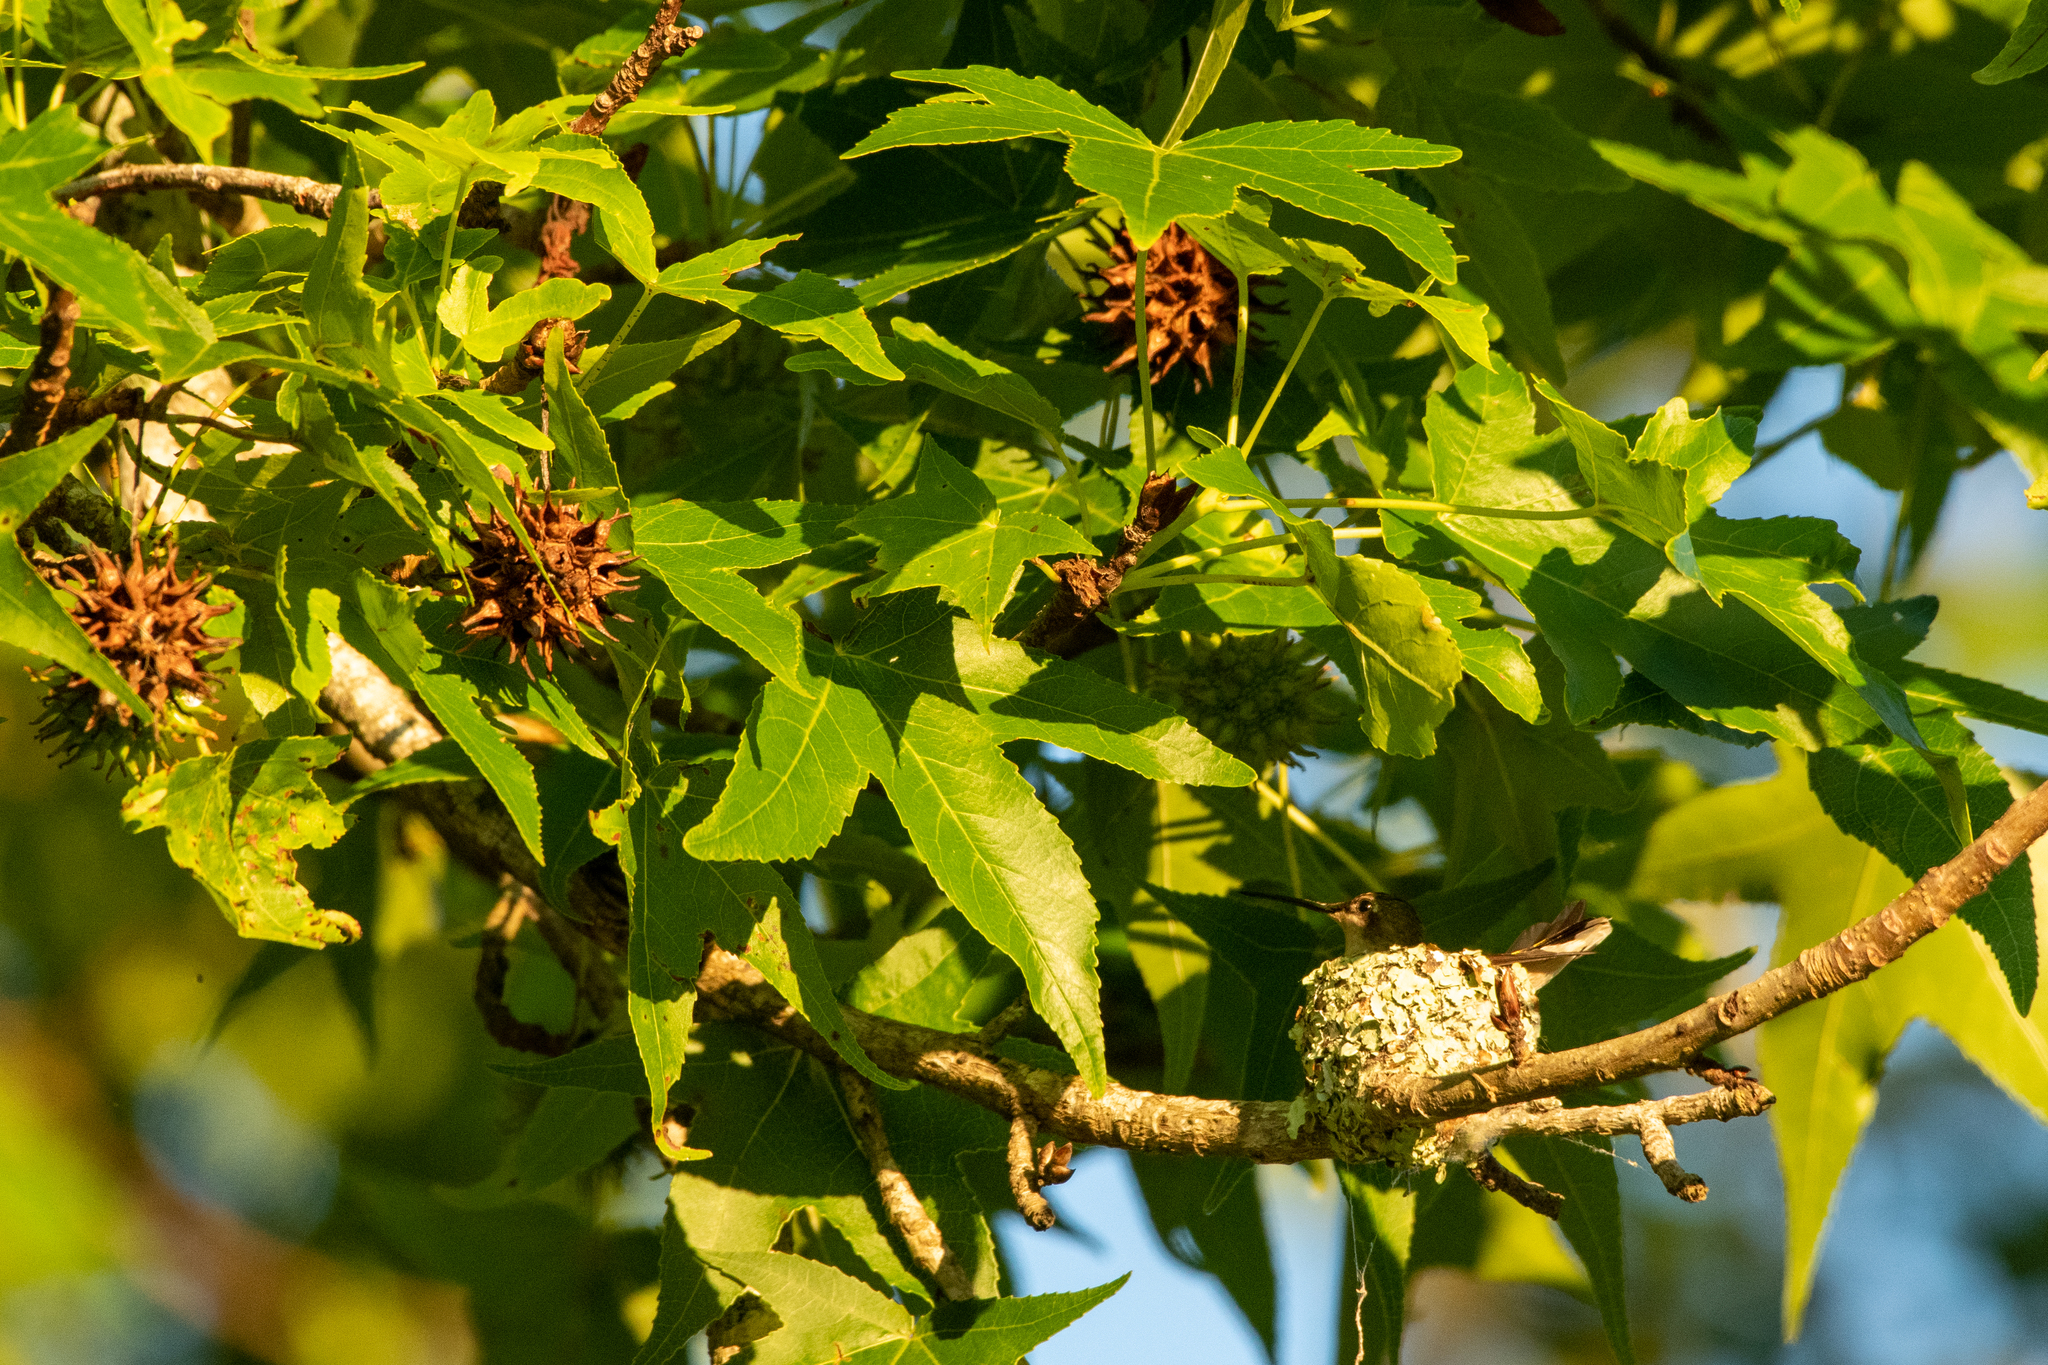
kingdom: Animalia
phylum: Chordata
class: Aves
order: Apodiformes
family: Trochilidae
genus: Archilochus
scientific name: Archilochus colubris
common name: Ruby-throated hummingbird
